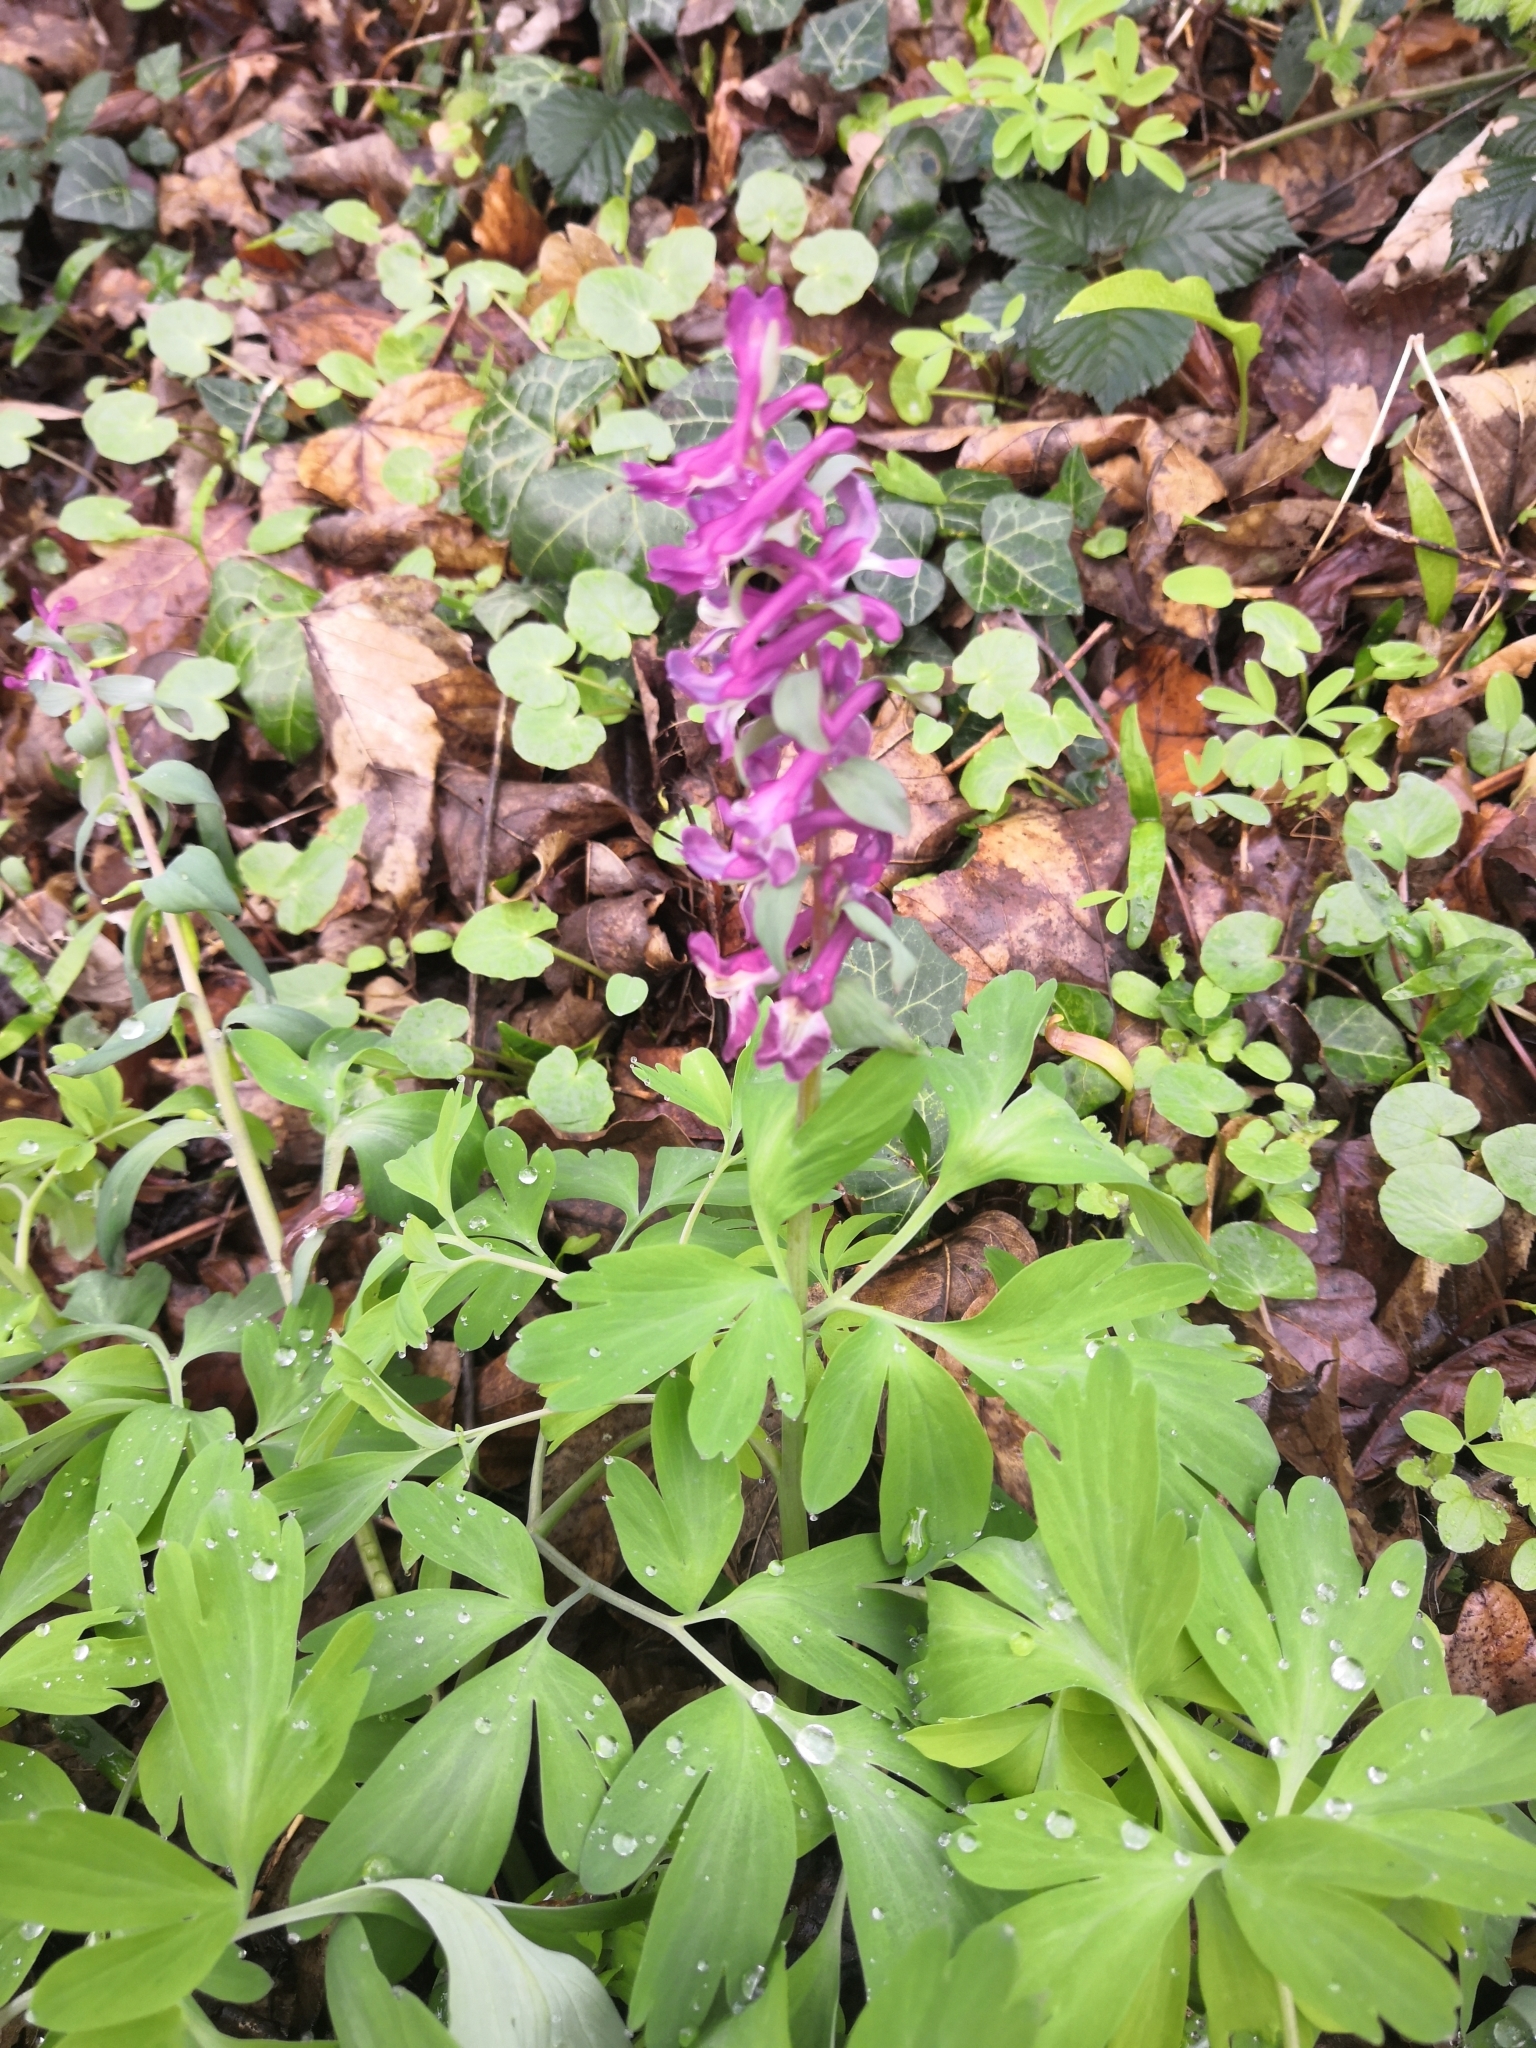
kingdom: Plantae
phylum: Tracheophyta
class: Magnoliopsida
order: Ranunculales
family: Papaveraceae
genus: Corydalis
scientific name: Corydalis cava
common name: Hollowroot
